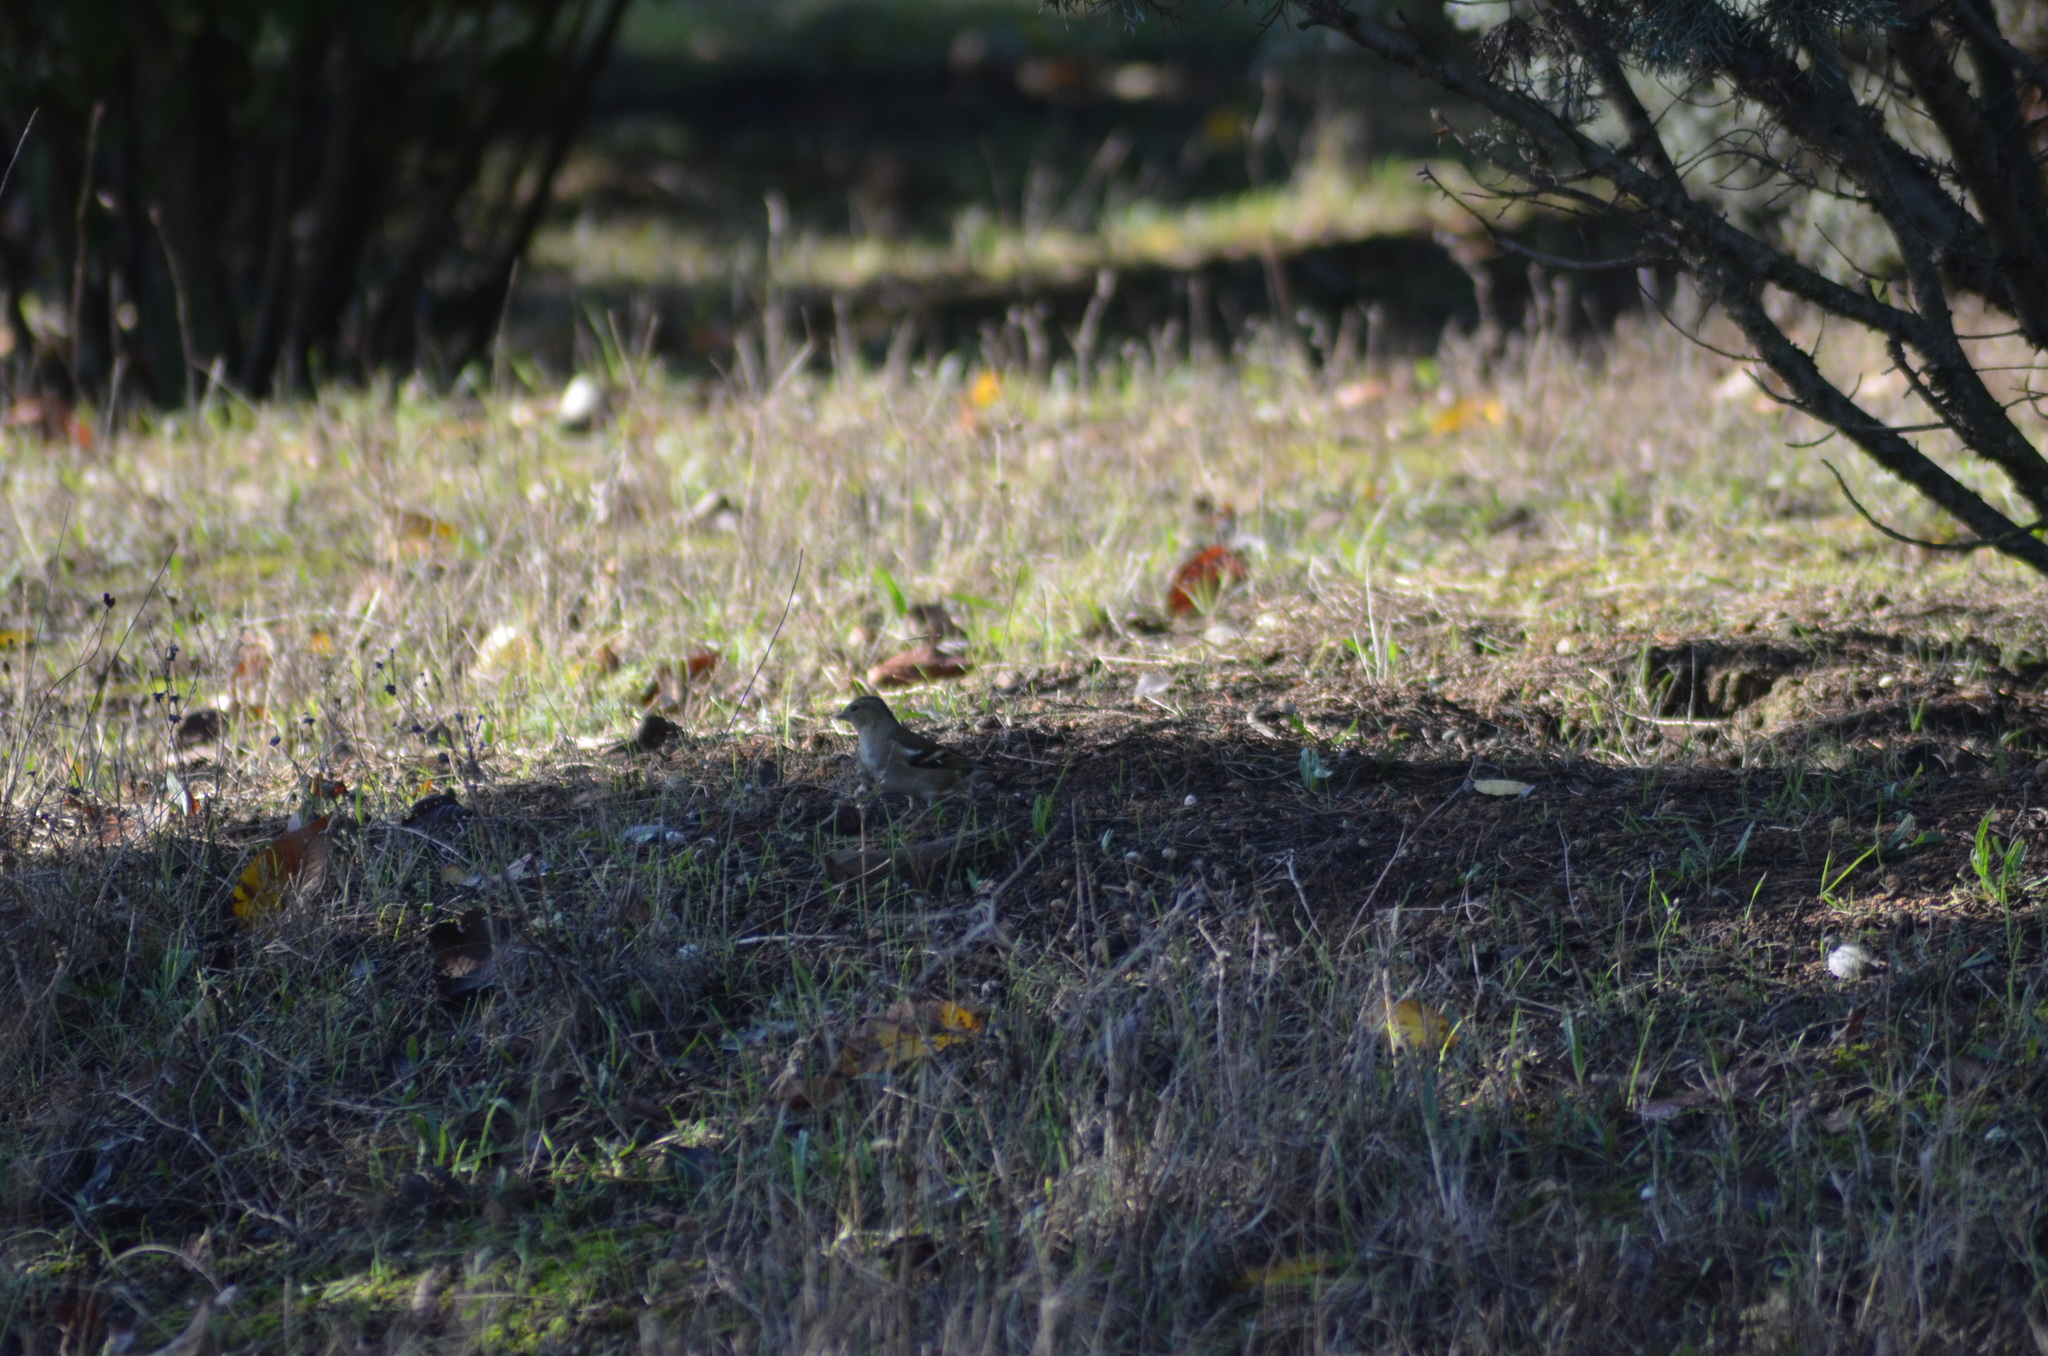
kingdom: Animalia
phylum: Chordata
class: Aves
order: Passeriformes
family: Fringillidae
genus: Fringilla
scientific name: Fringilla coelebs
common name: Common chaffinch
